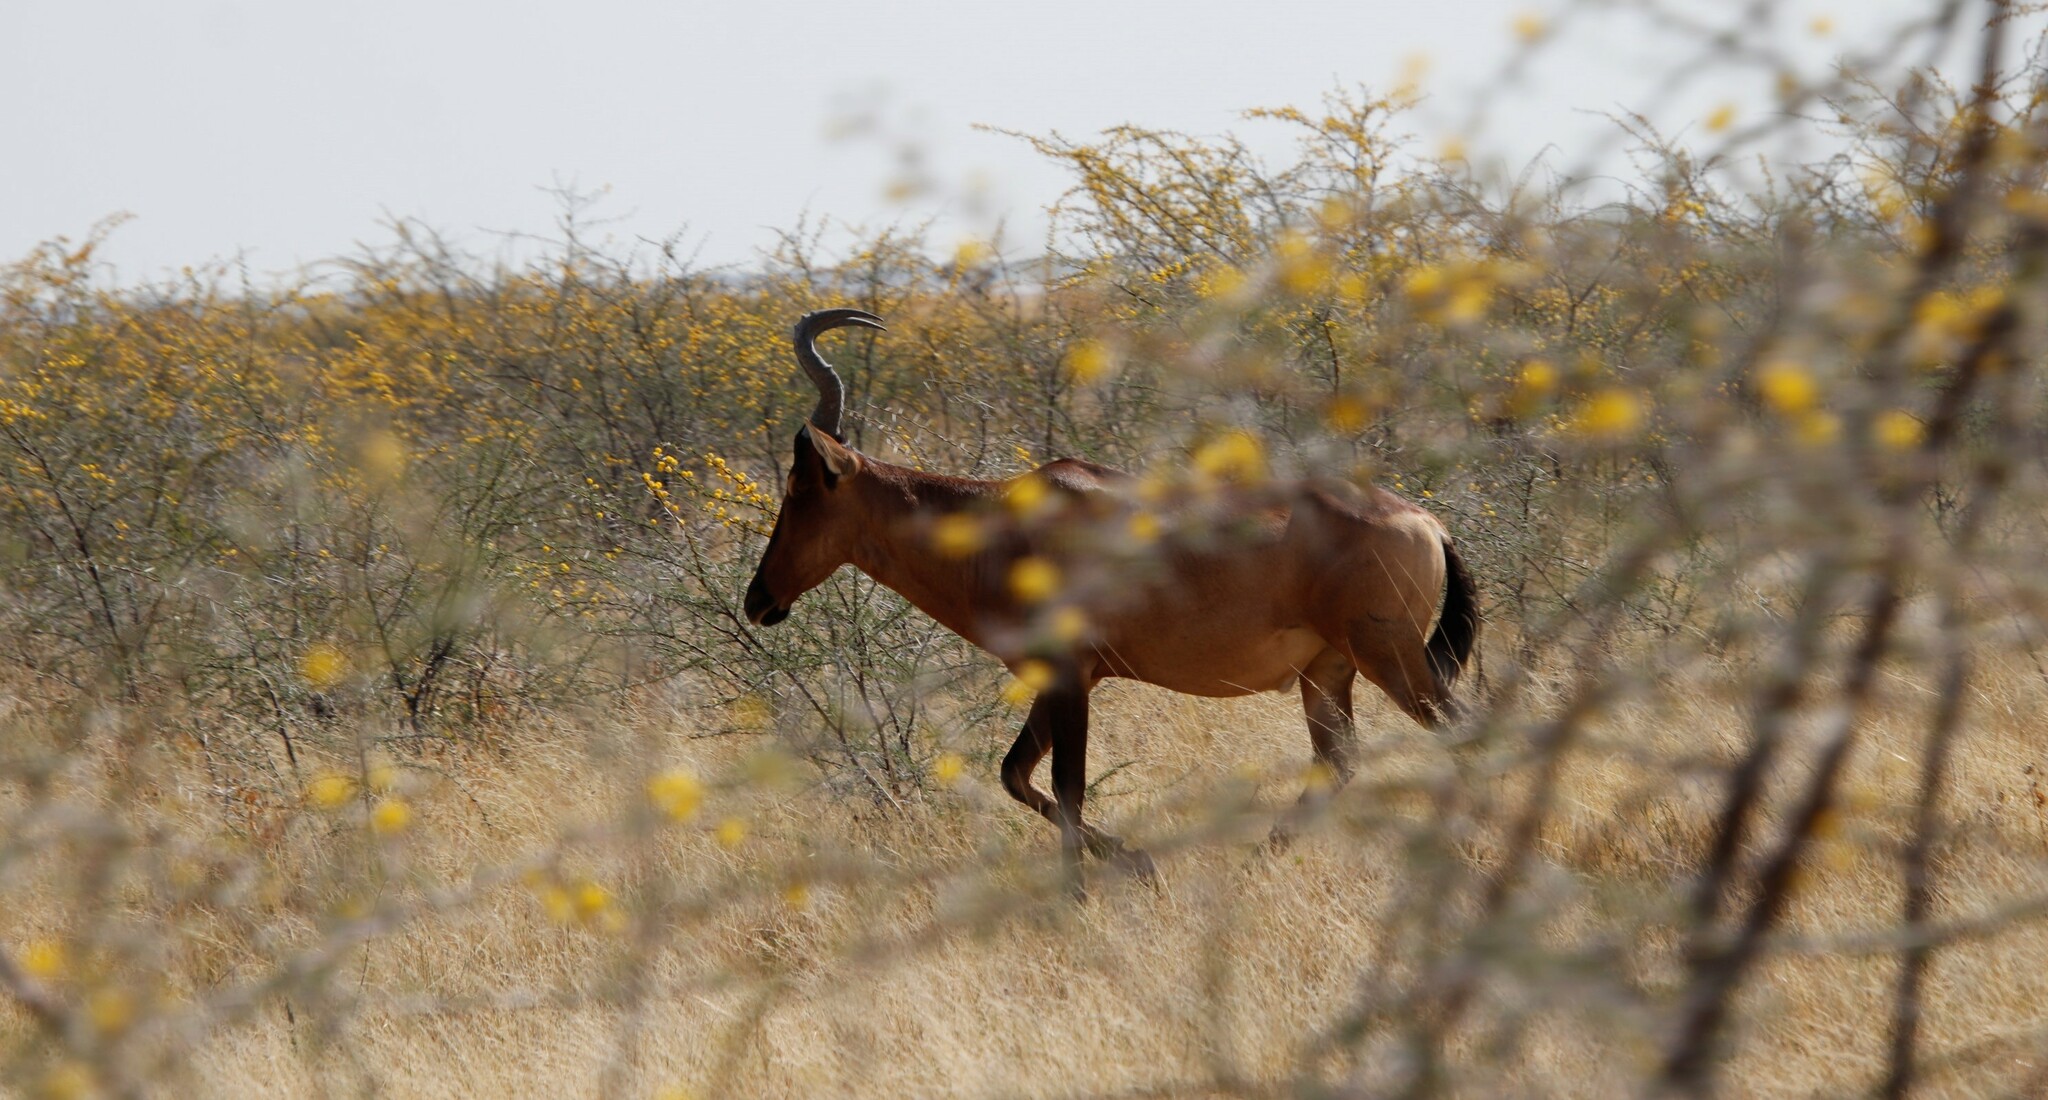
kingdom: Animalia
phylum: Chordata
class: Mammalia
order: Artiodactyla
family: Bovidae
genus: Alcelaphus
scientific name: Alcelaphus caama
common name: Red hartebeest
